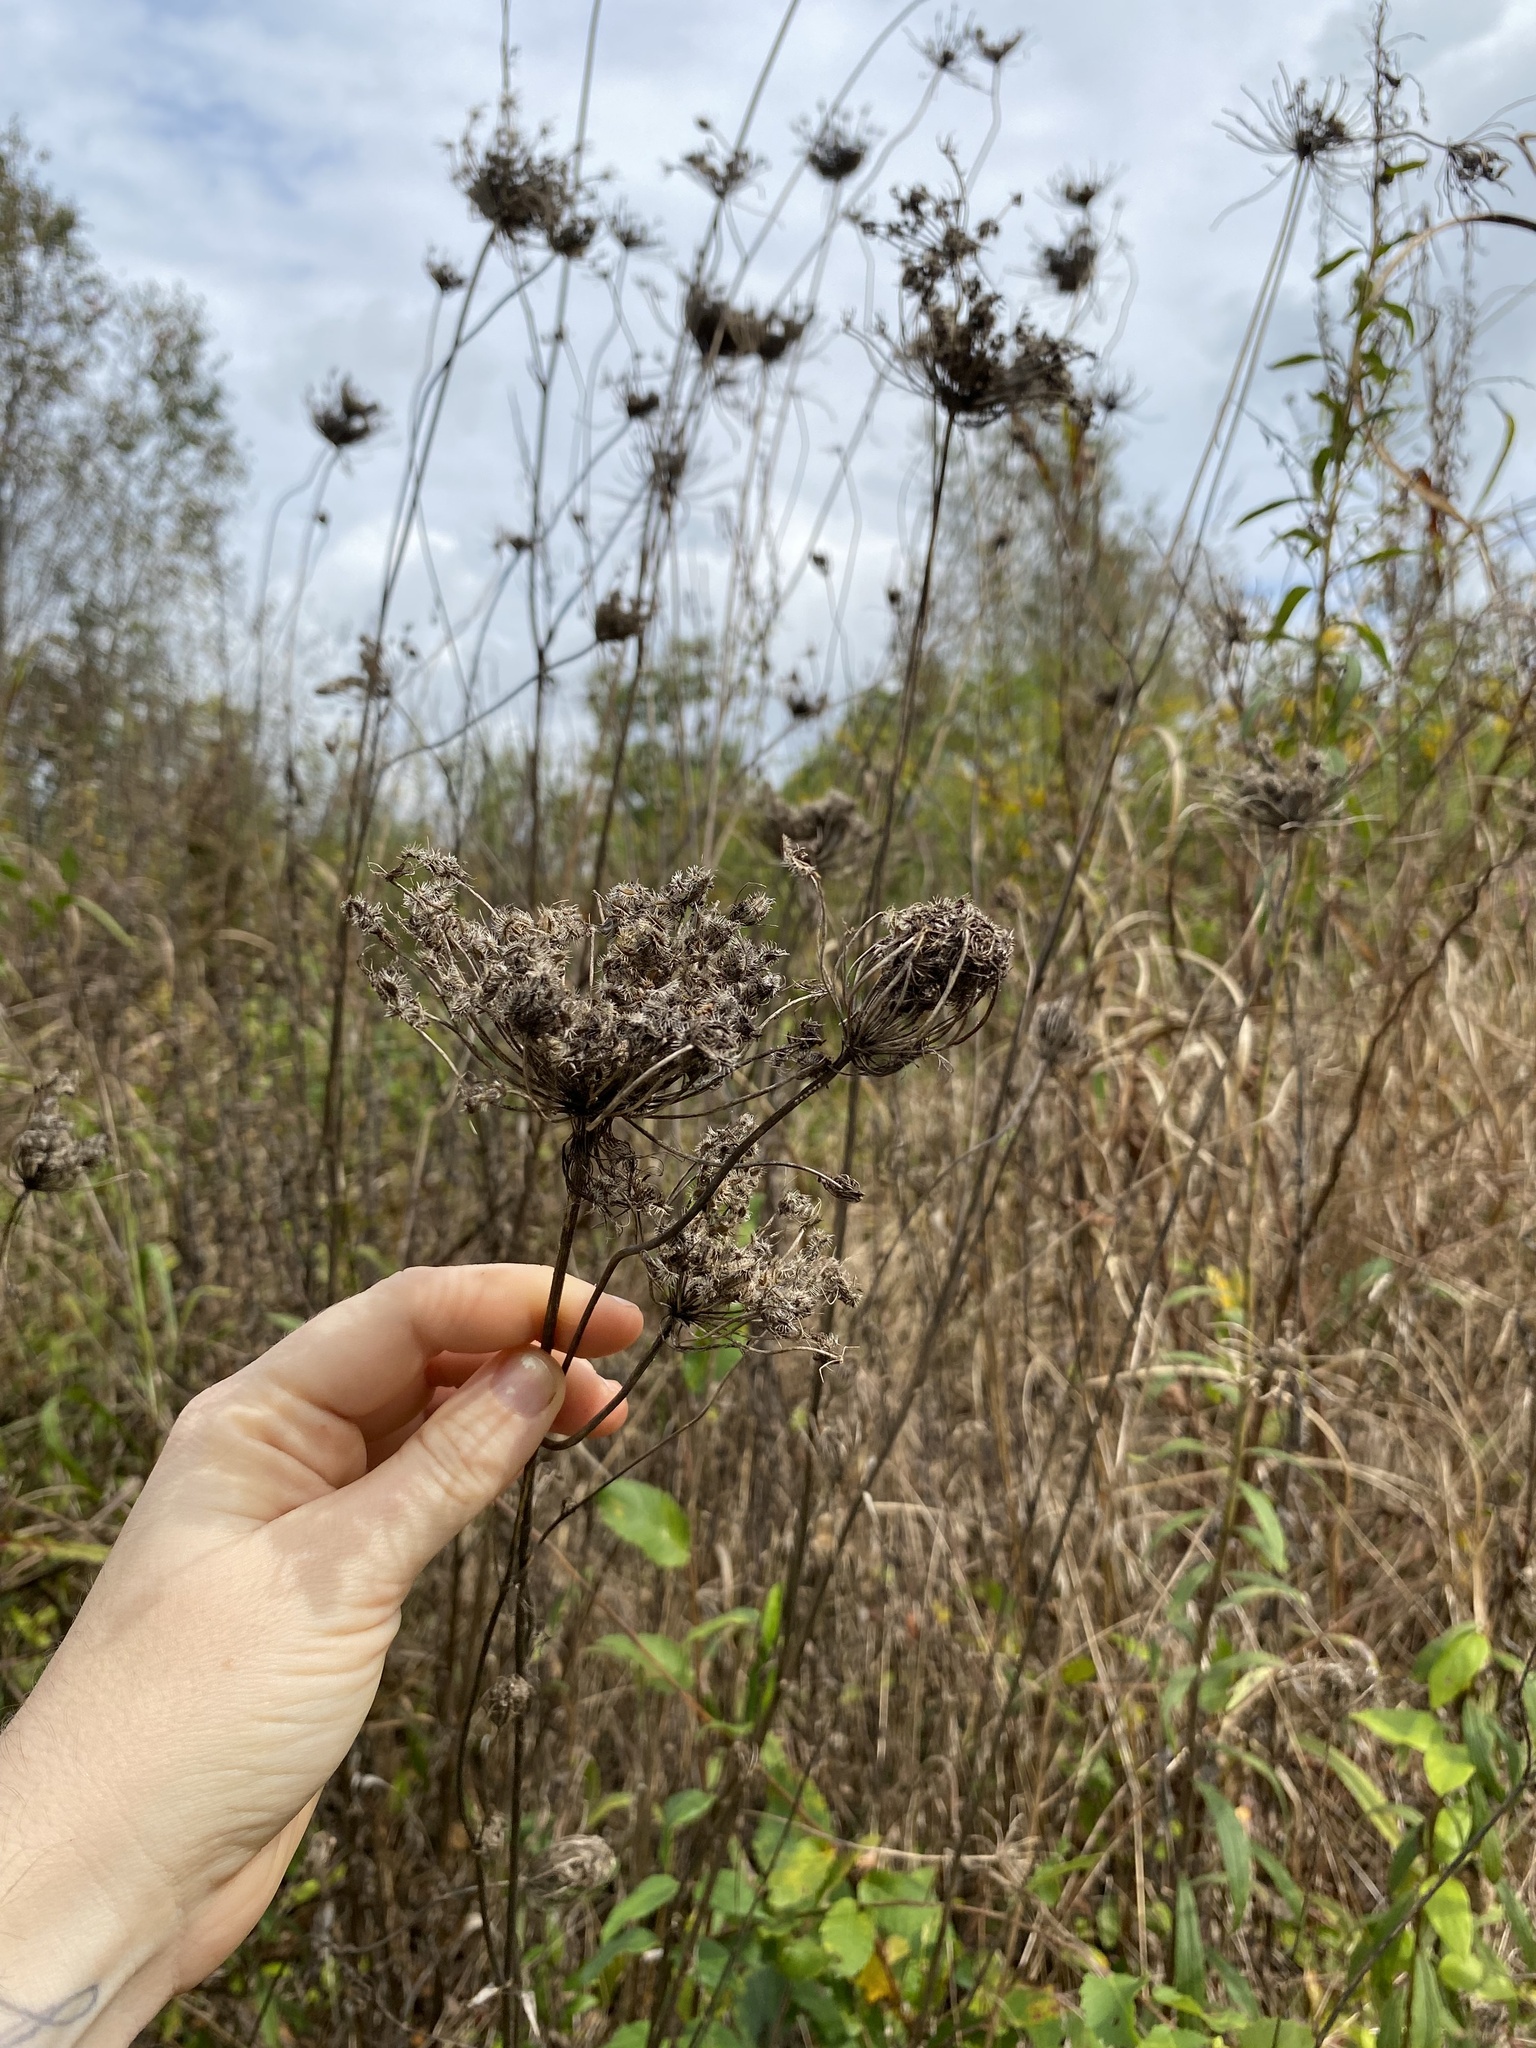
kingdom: Plantae
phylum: Tracheophyta
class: Magnoliopsida
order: Apiales
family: Apiaceae
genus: Daucus
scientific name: Daucus carota
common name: Wild carrot
